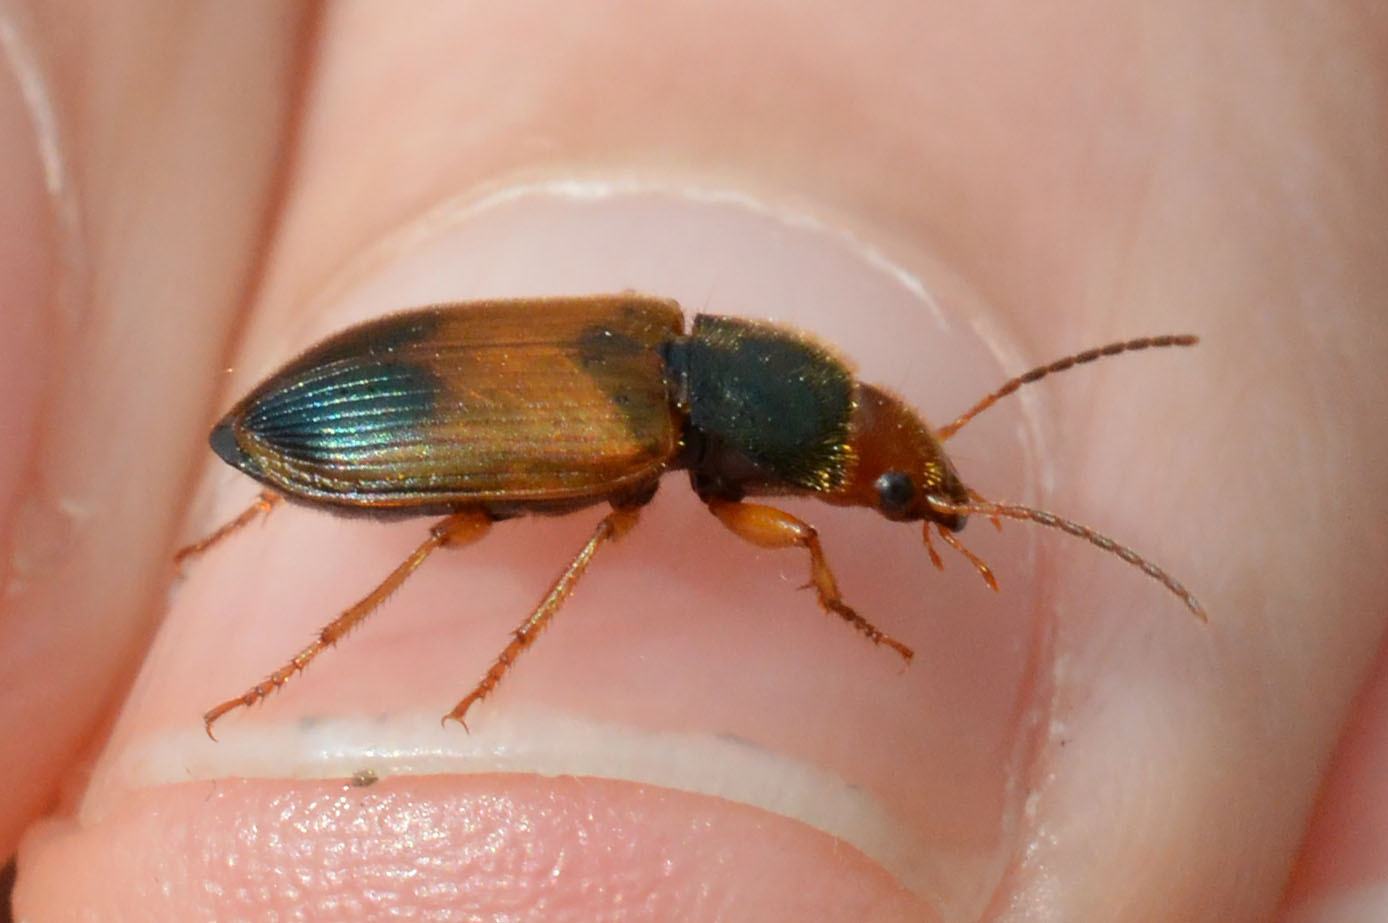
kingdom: Animalia
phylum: Arthropoda
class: Insecta
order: Coleoptera
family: Carabidae
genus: Diachromus
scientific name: Diachromus germanus
